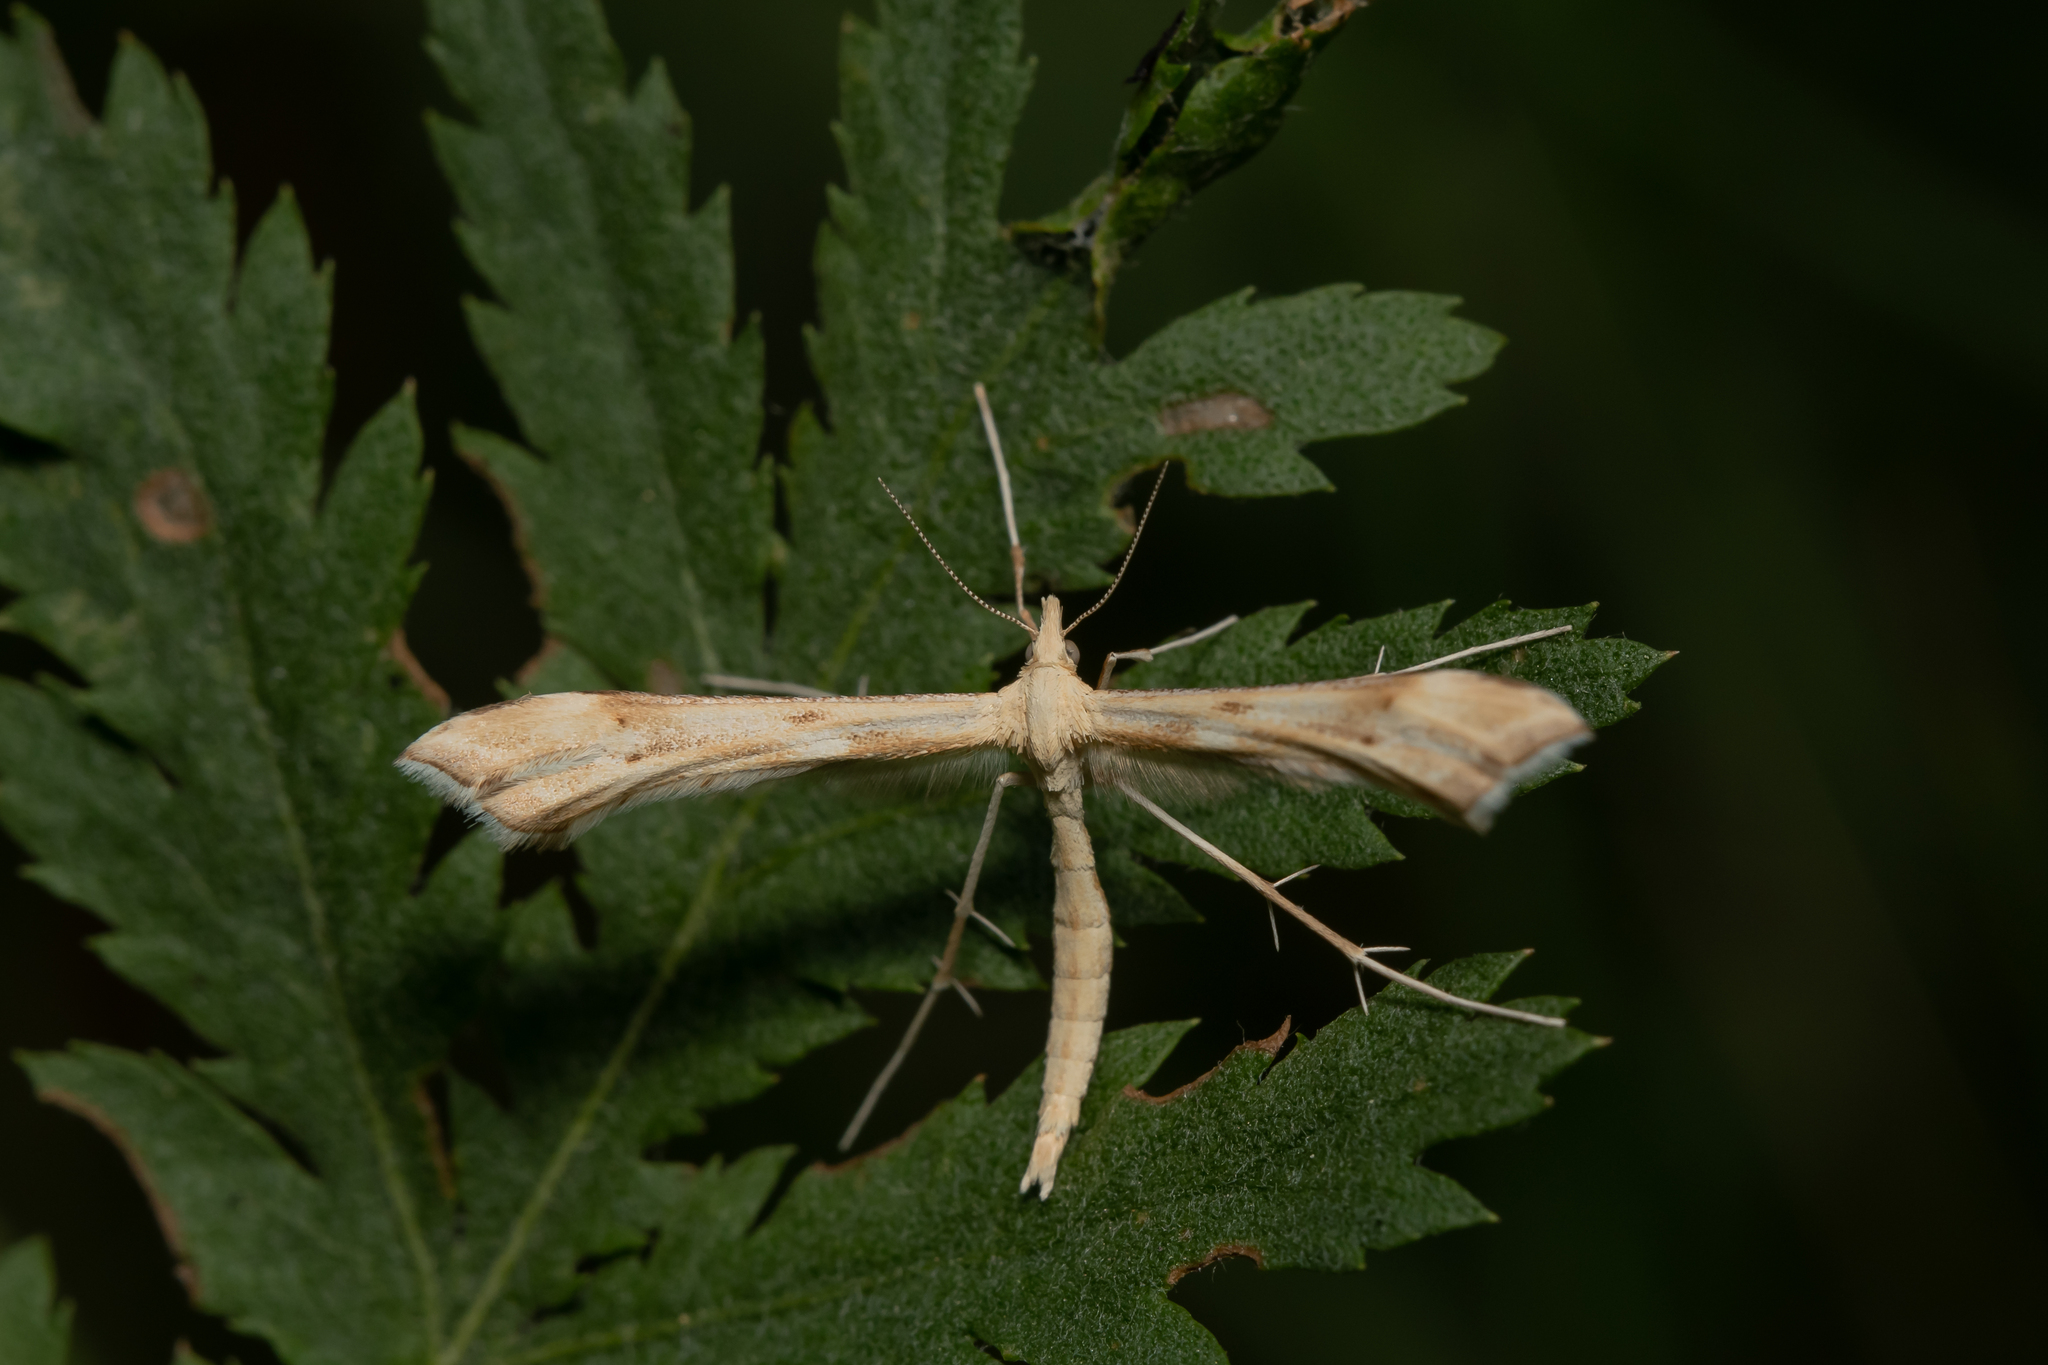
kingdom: Animalia
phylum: Arthropoda
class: Insecta
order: Lepidoptera
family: Pterophoridae
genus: Gillmeria
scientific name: Gillmeria pallidactyla
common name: Yarrow plume
